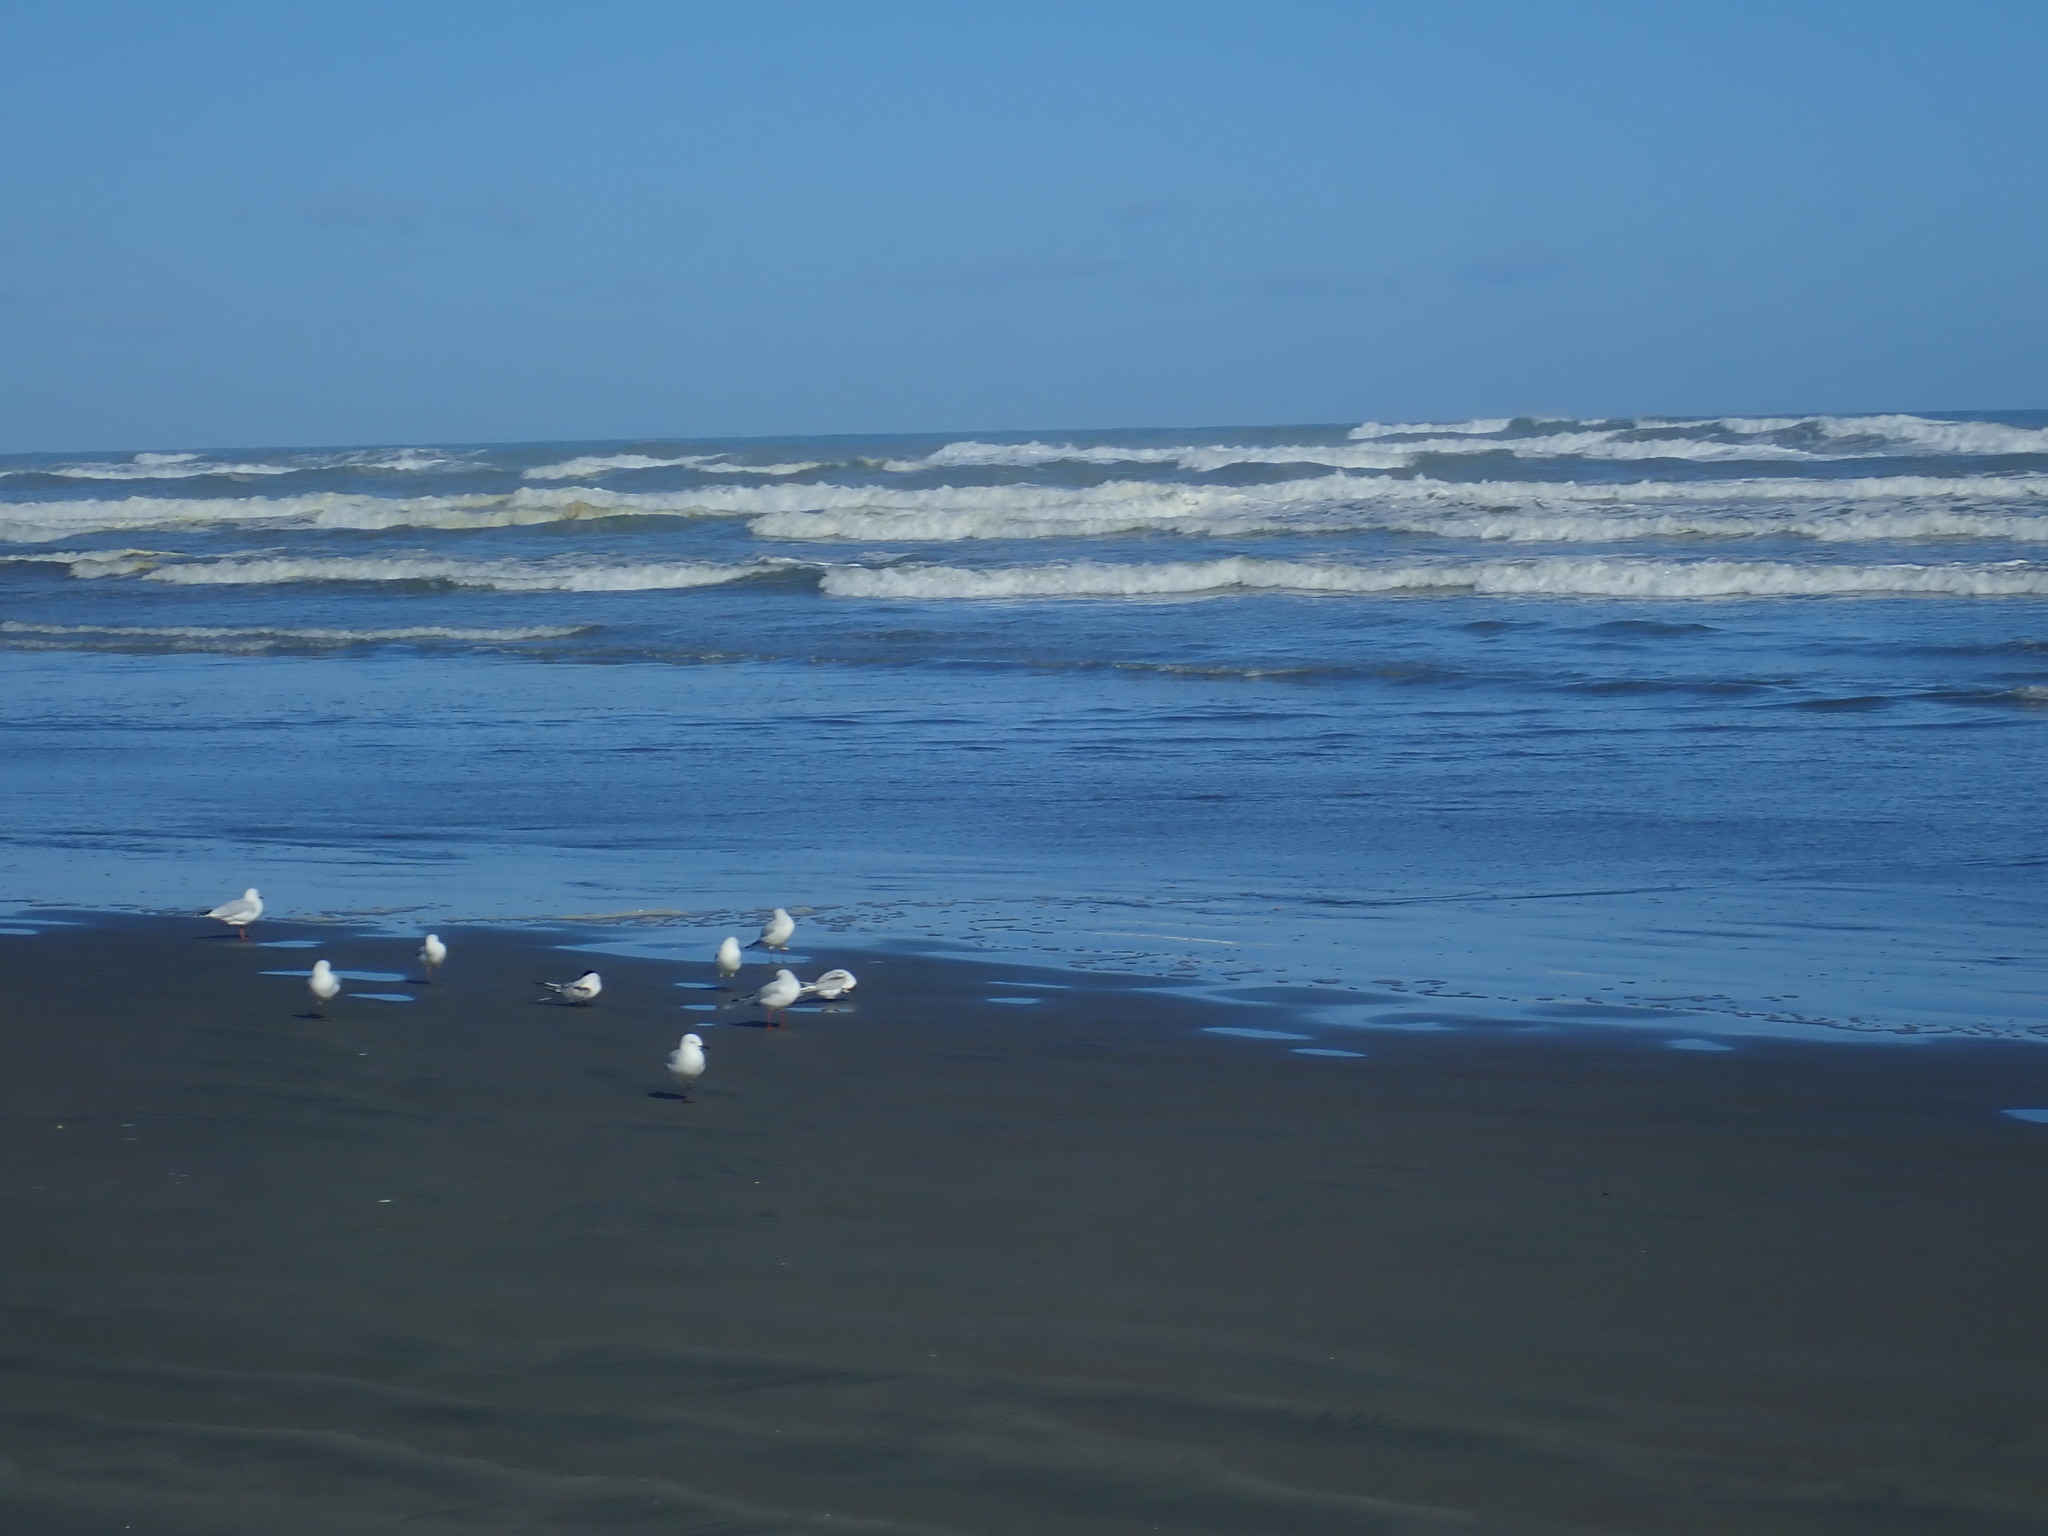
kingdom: Animalia
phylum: Chordata
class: Aves
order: Charadriiformes
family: Laridae
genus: Sterna
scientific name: Sterna striata
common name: White-fronted tern
